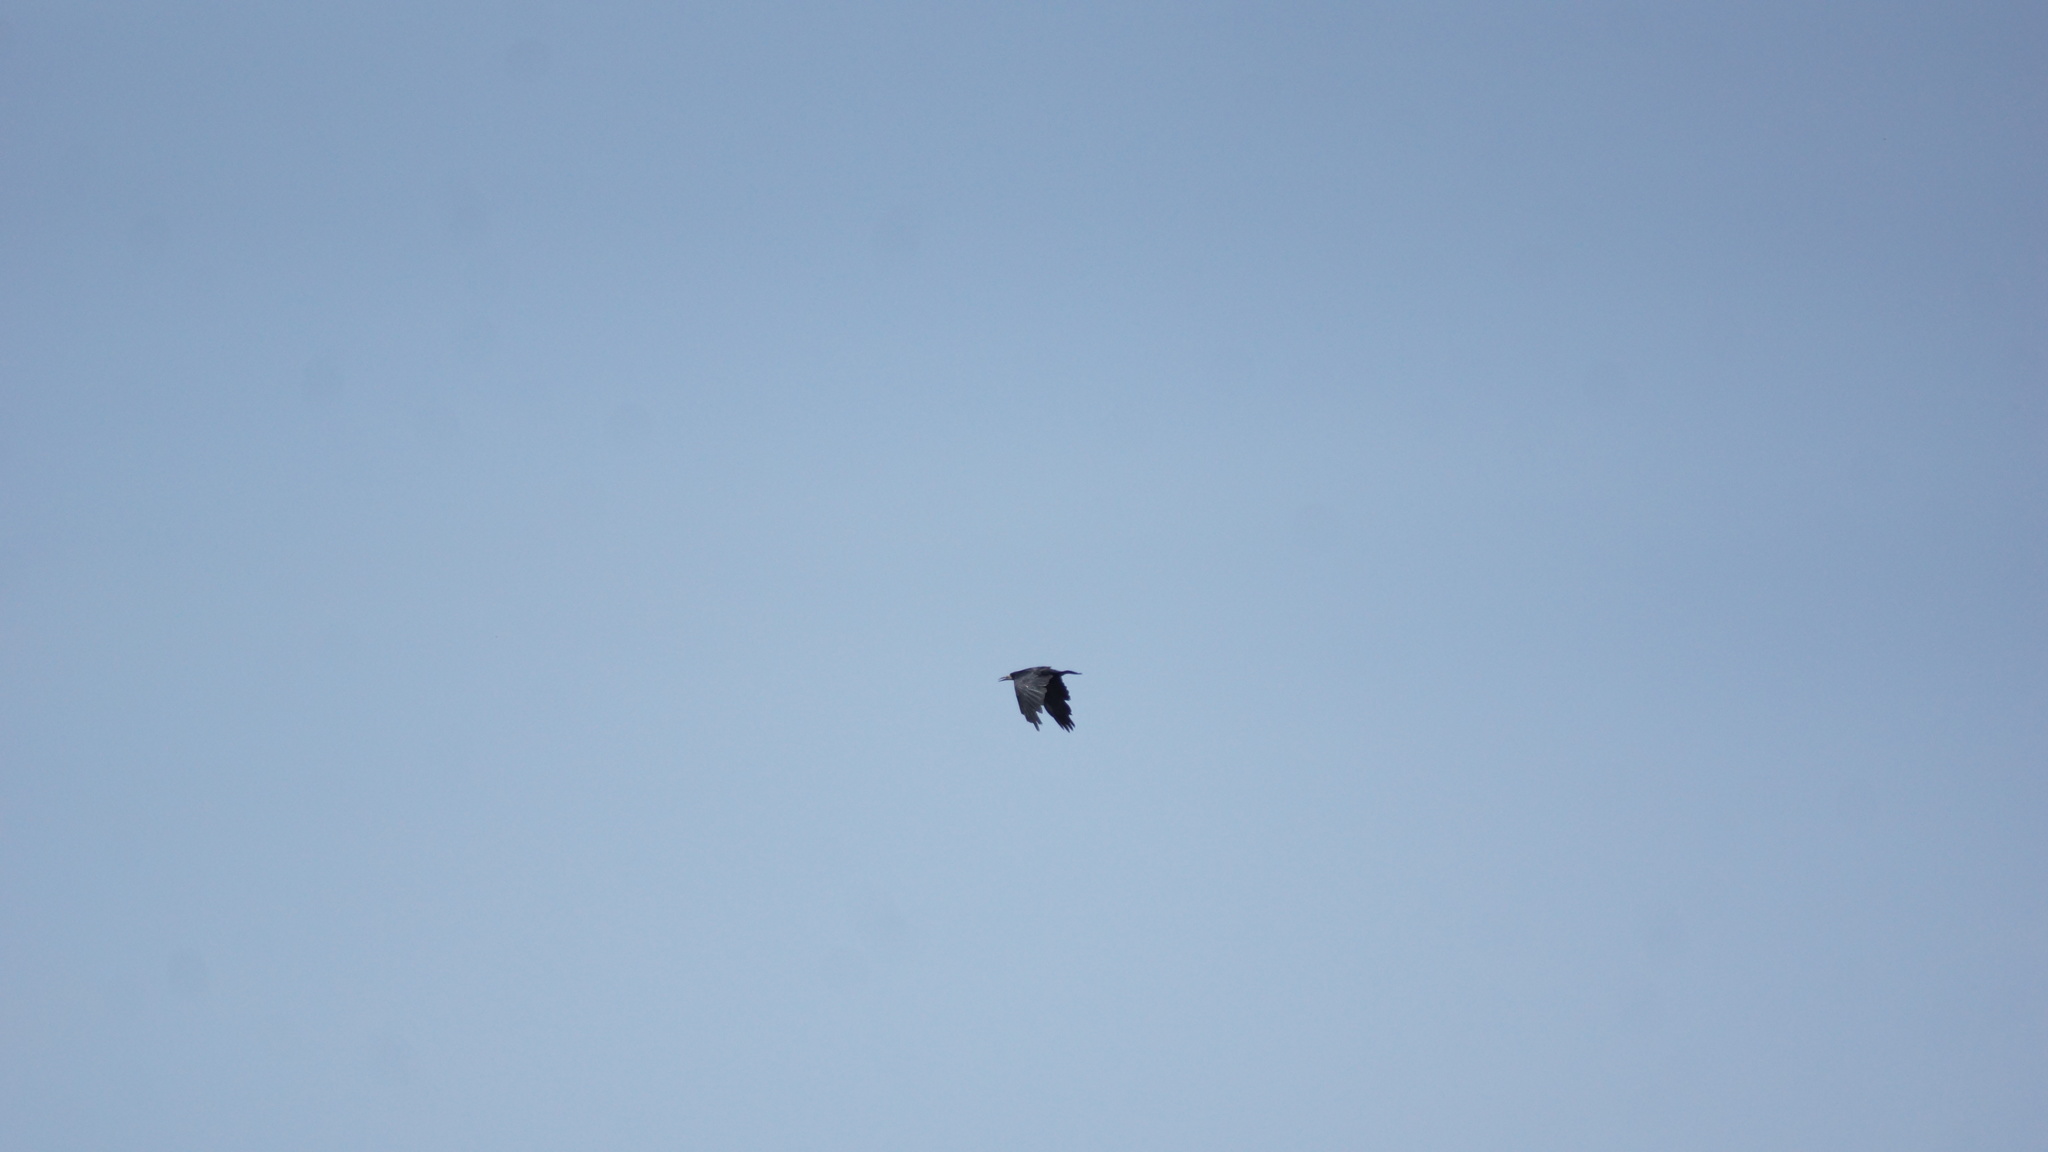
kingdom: Animalia
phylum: Chordata
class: Aves
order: Passeriformes
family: Corvidae
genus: Corvus
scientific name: Corvus frugilegus
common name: Rook
